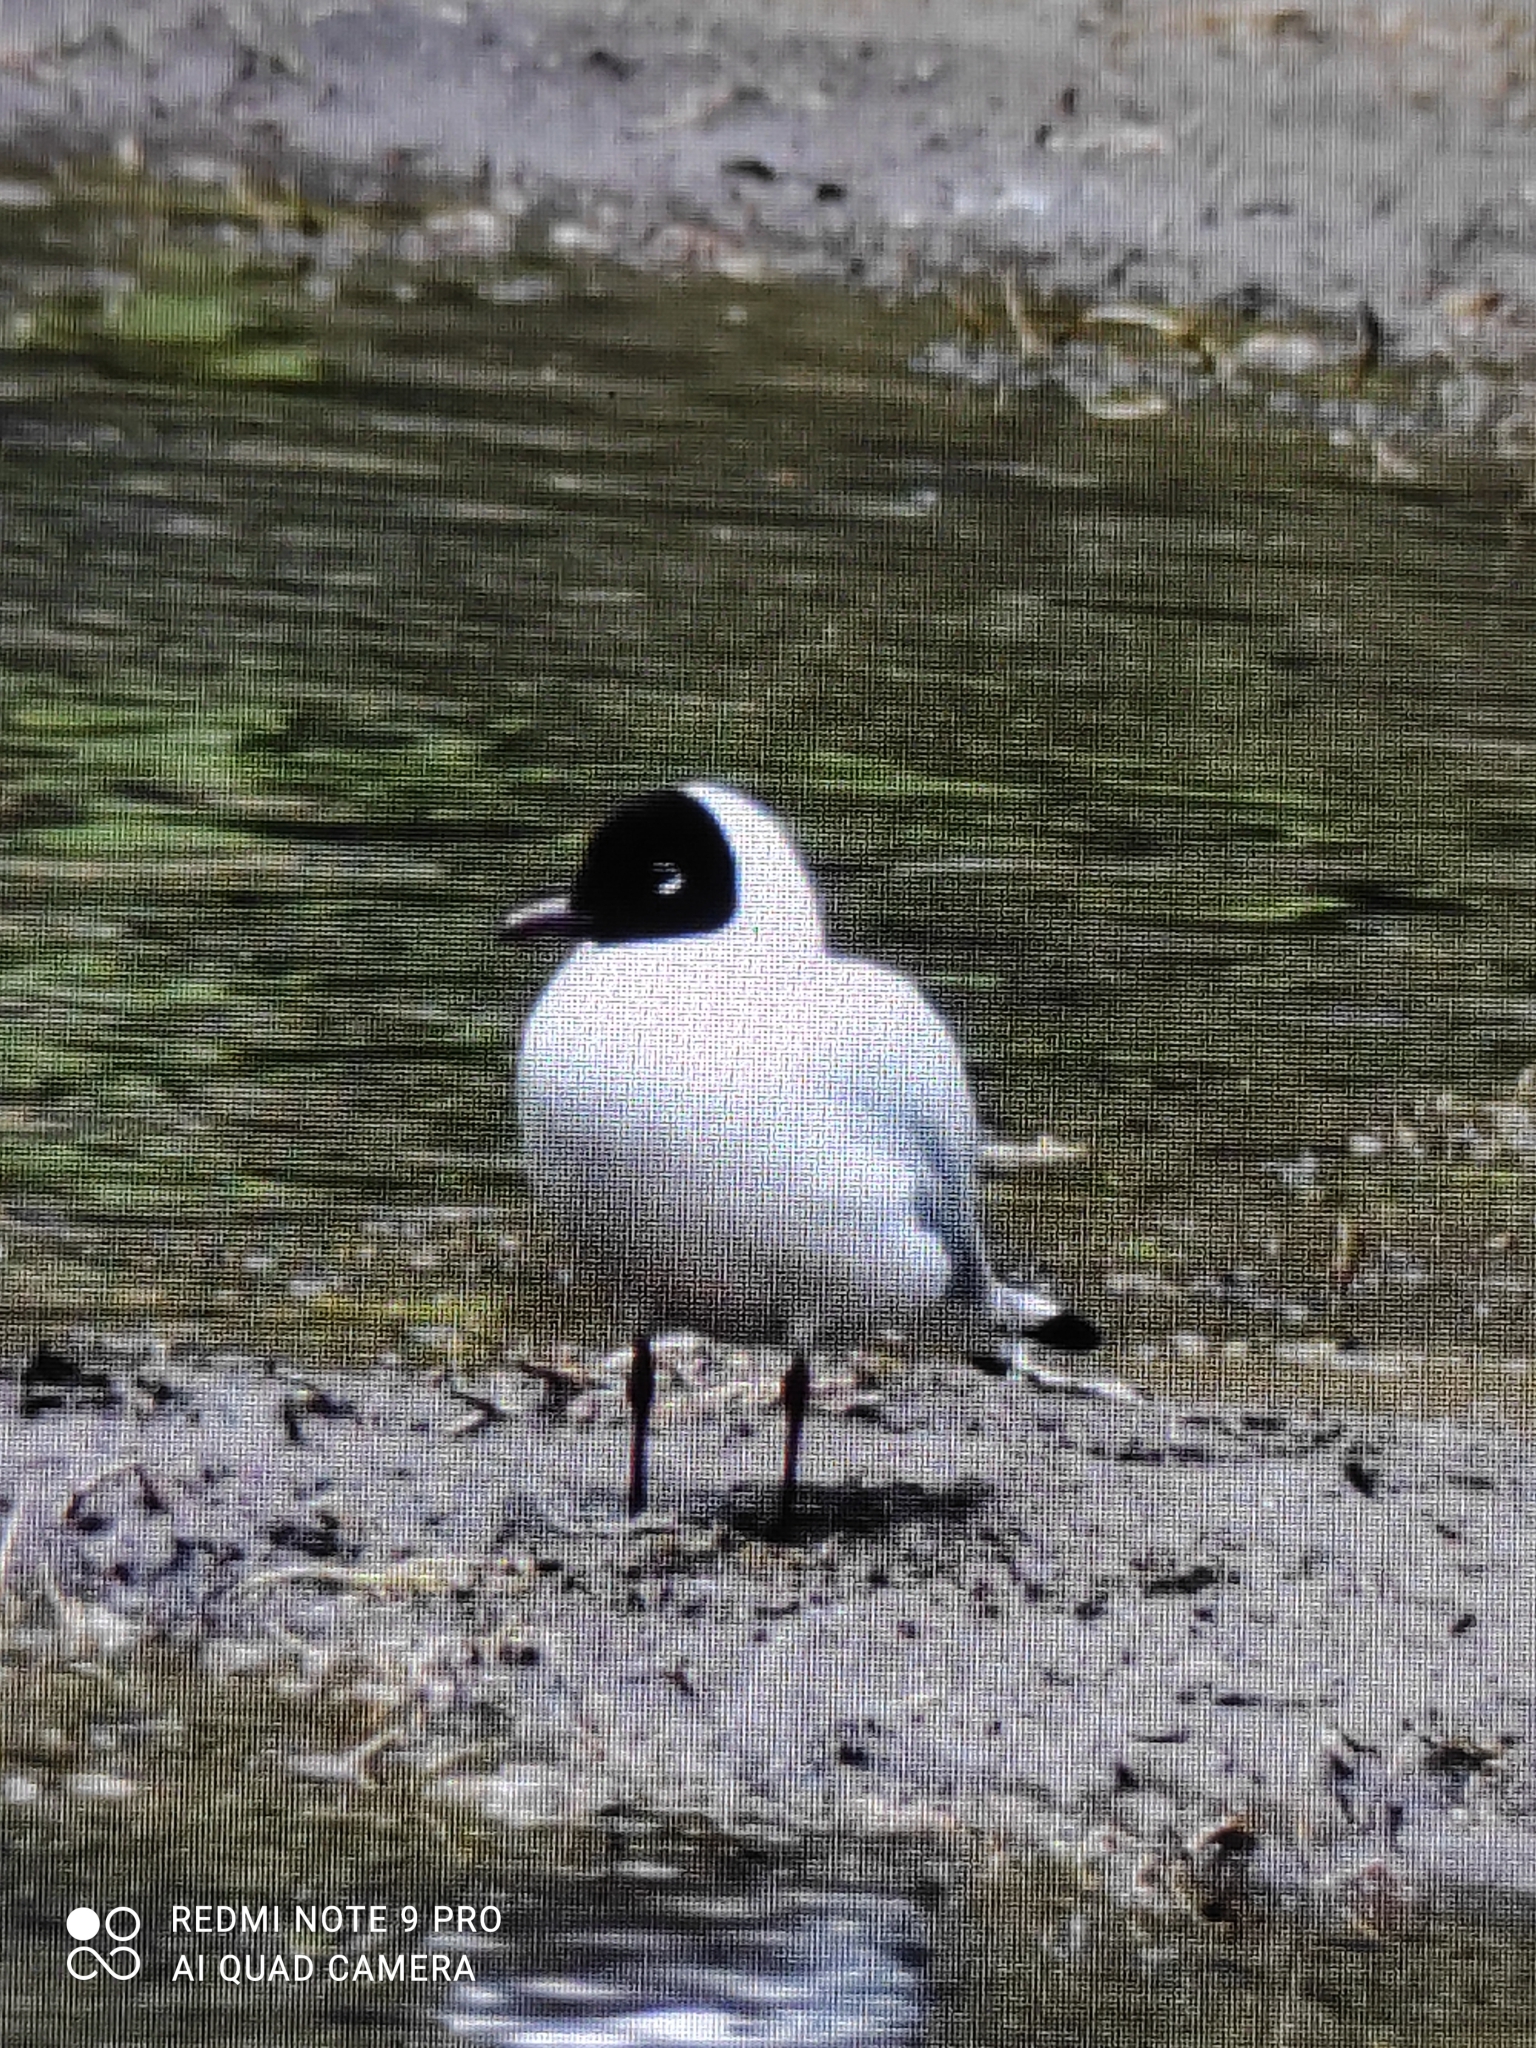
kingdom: Animalia
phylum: Chordata
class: Aves
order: Charadriiformes
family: Laridae
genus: Chroicocephalus
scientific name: Chroicocephalus serranus
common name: Andean gull
